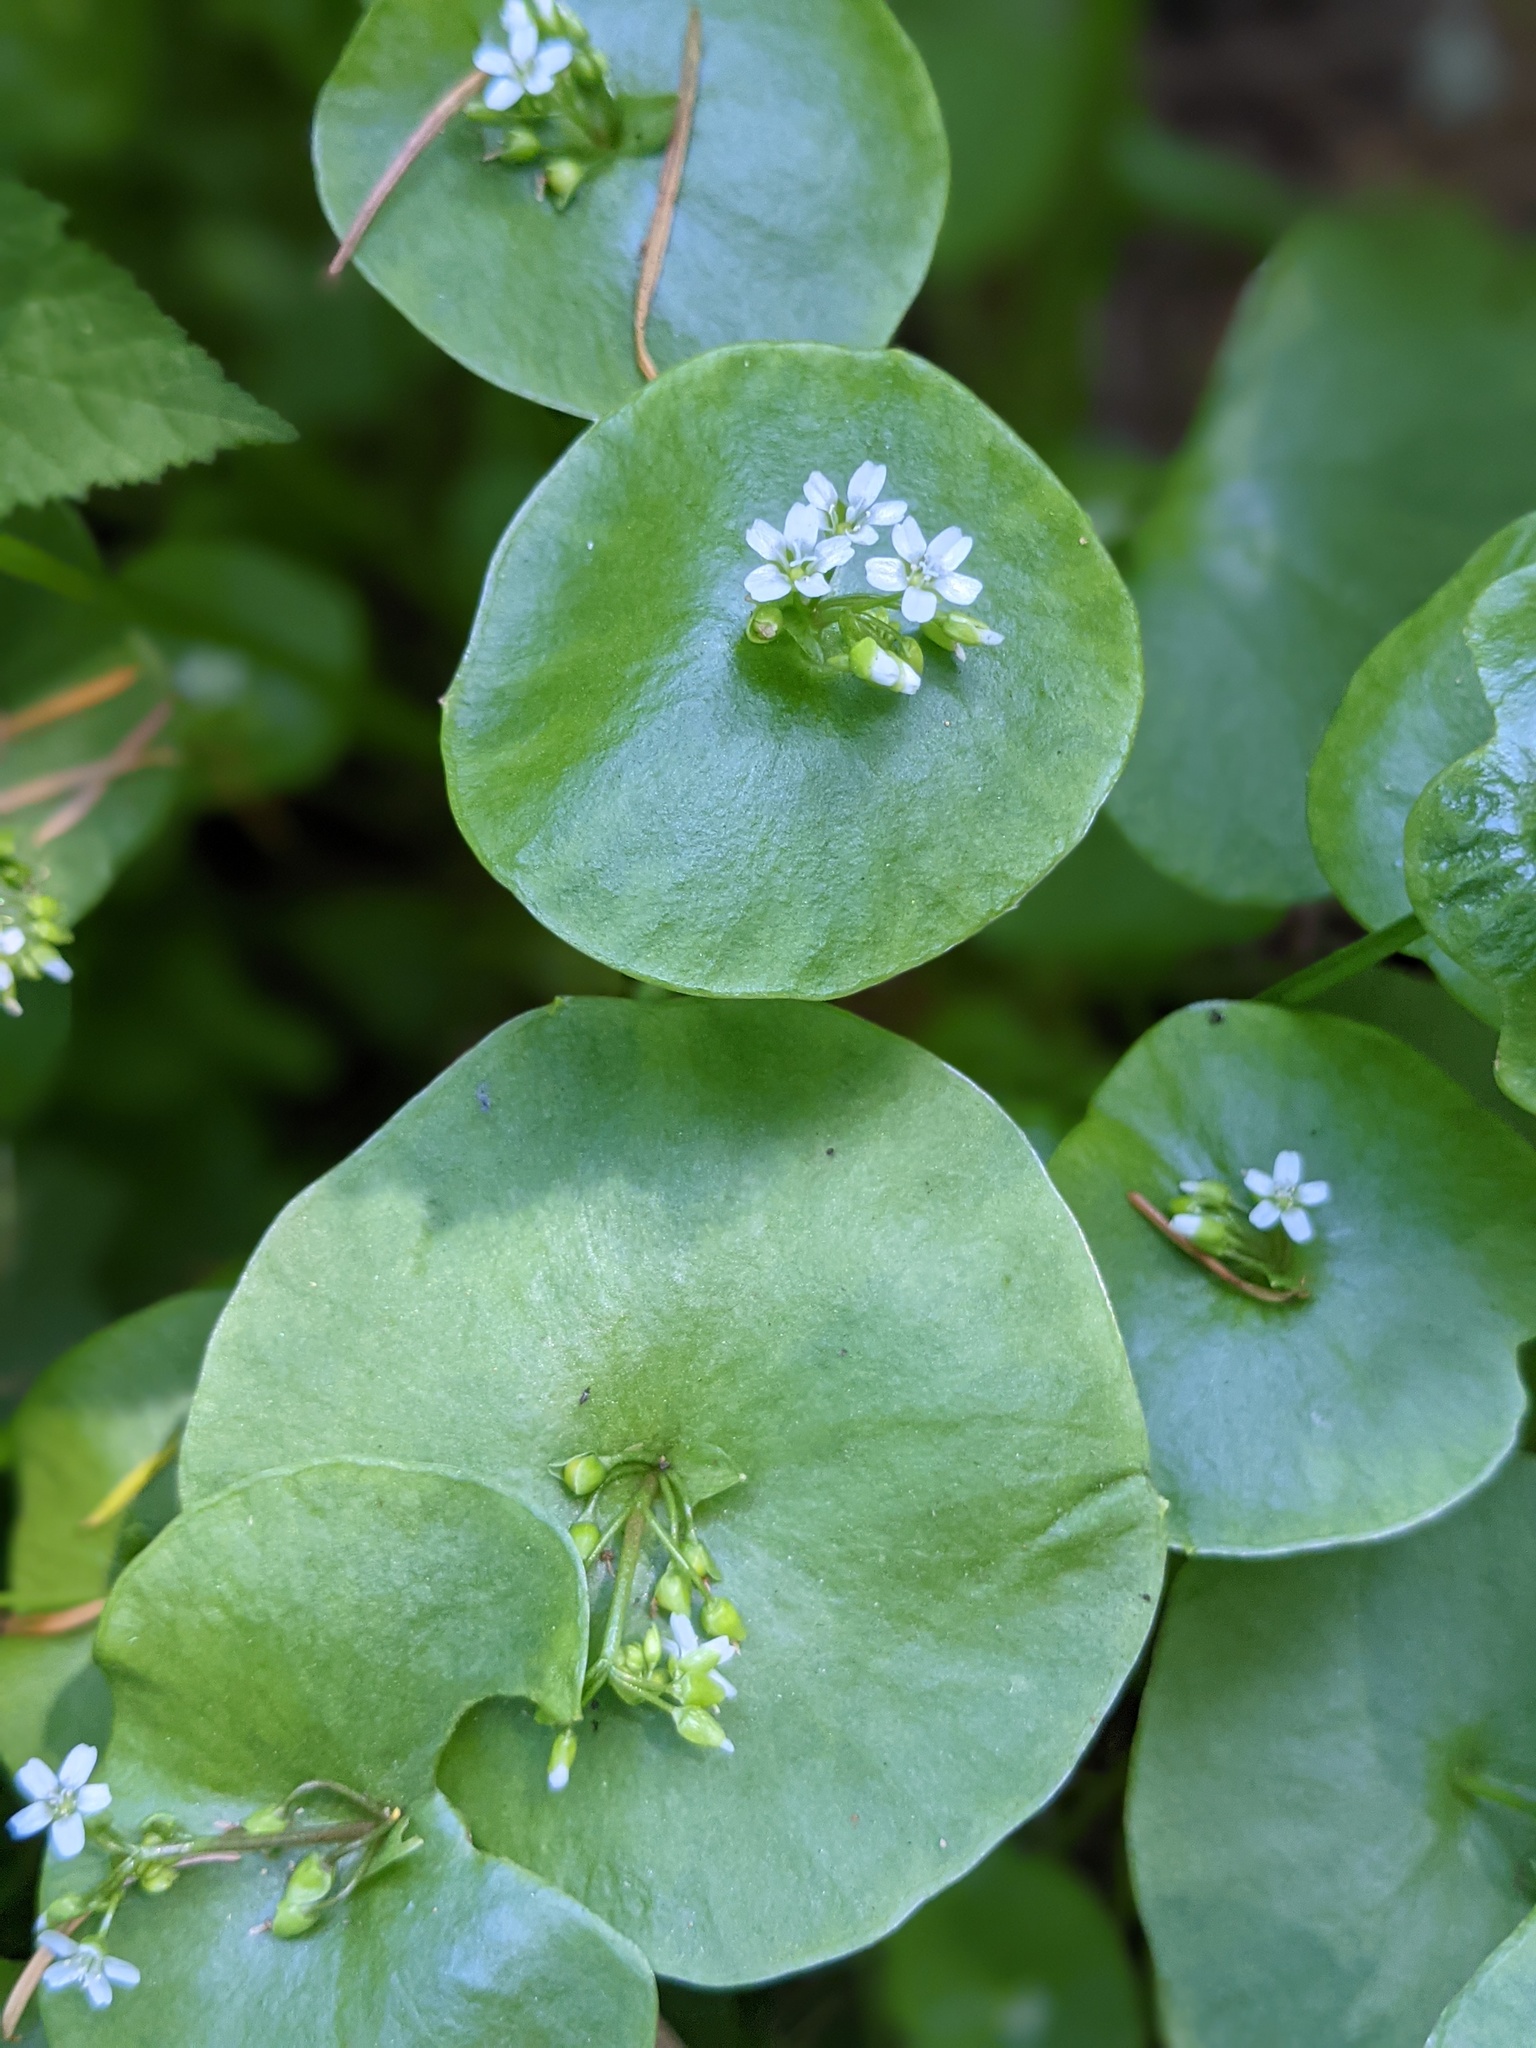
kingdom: Plantae
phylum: Tracheophyta
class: Magnoliopsida
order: Caryophyllales
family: Montiaceae
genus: Claytonia
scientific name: Claytonia perfoliata
